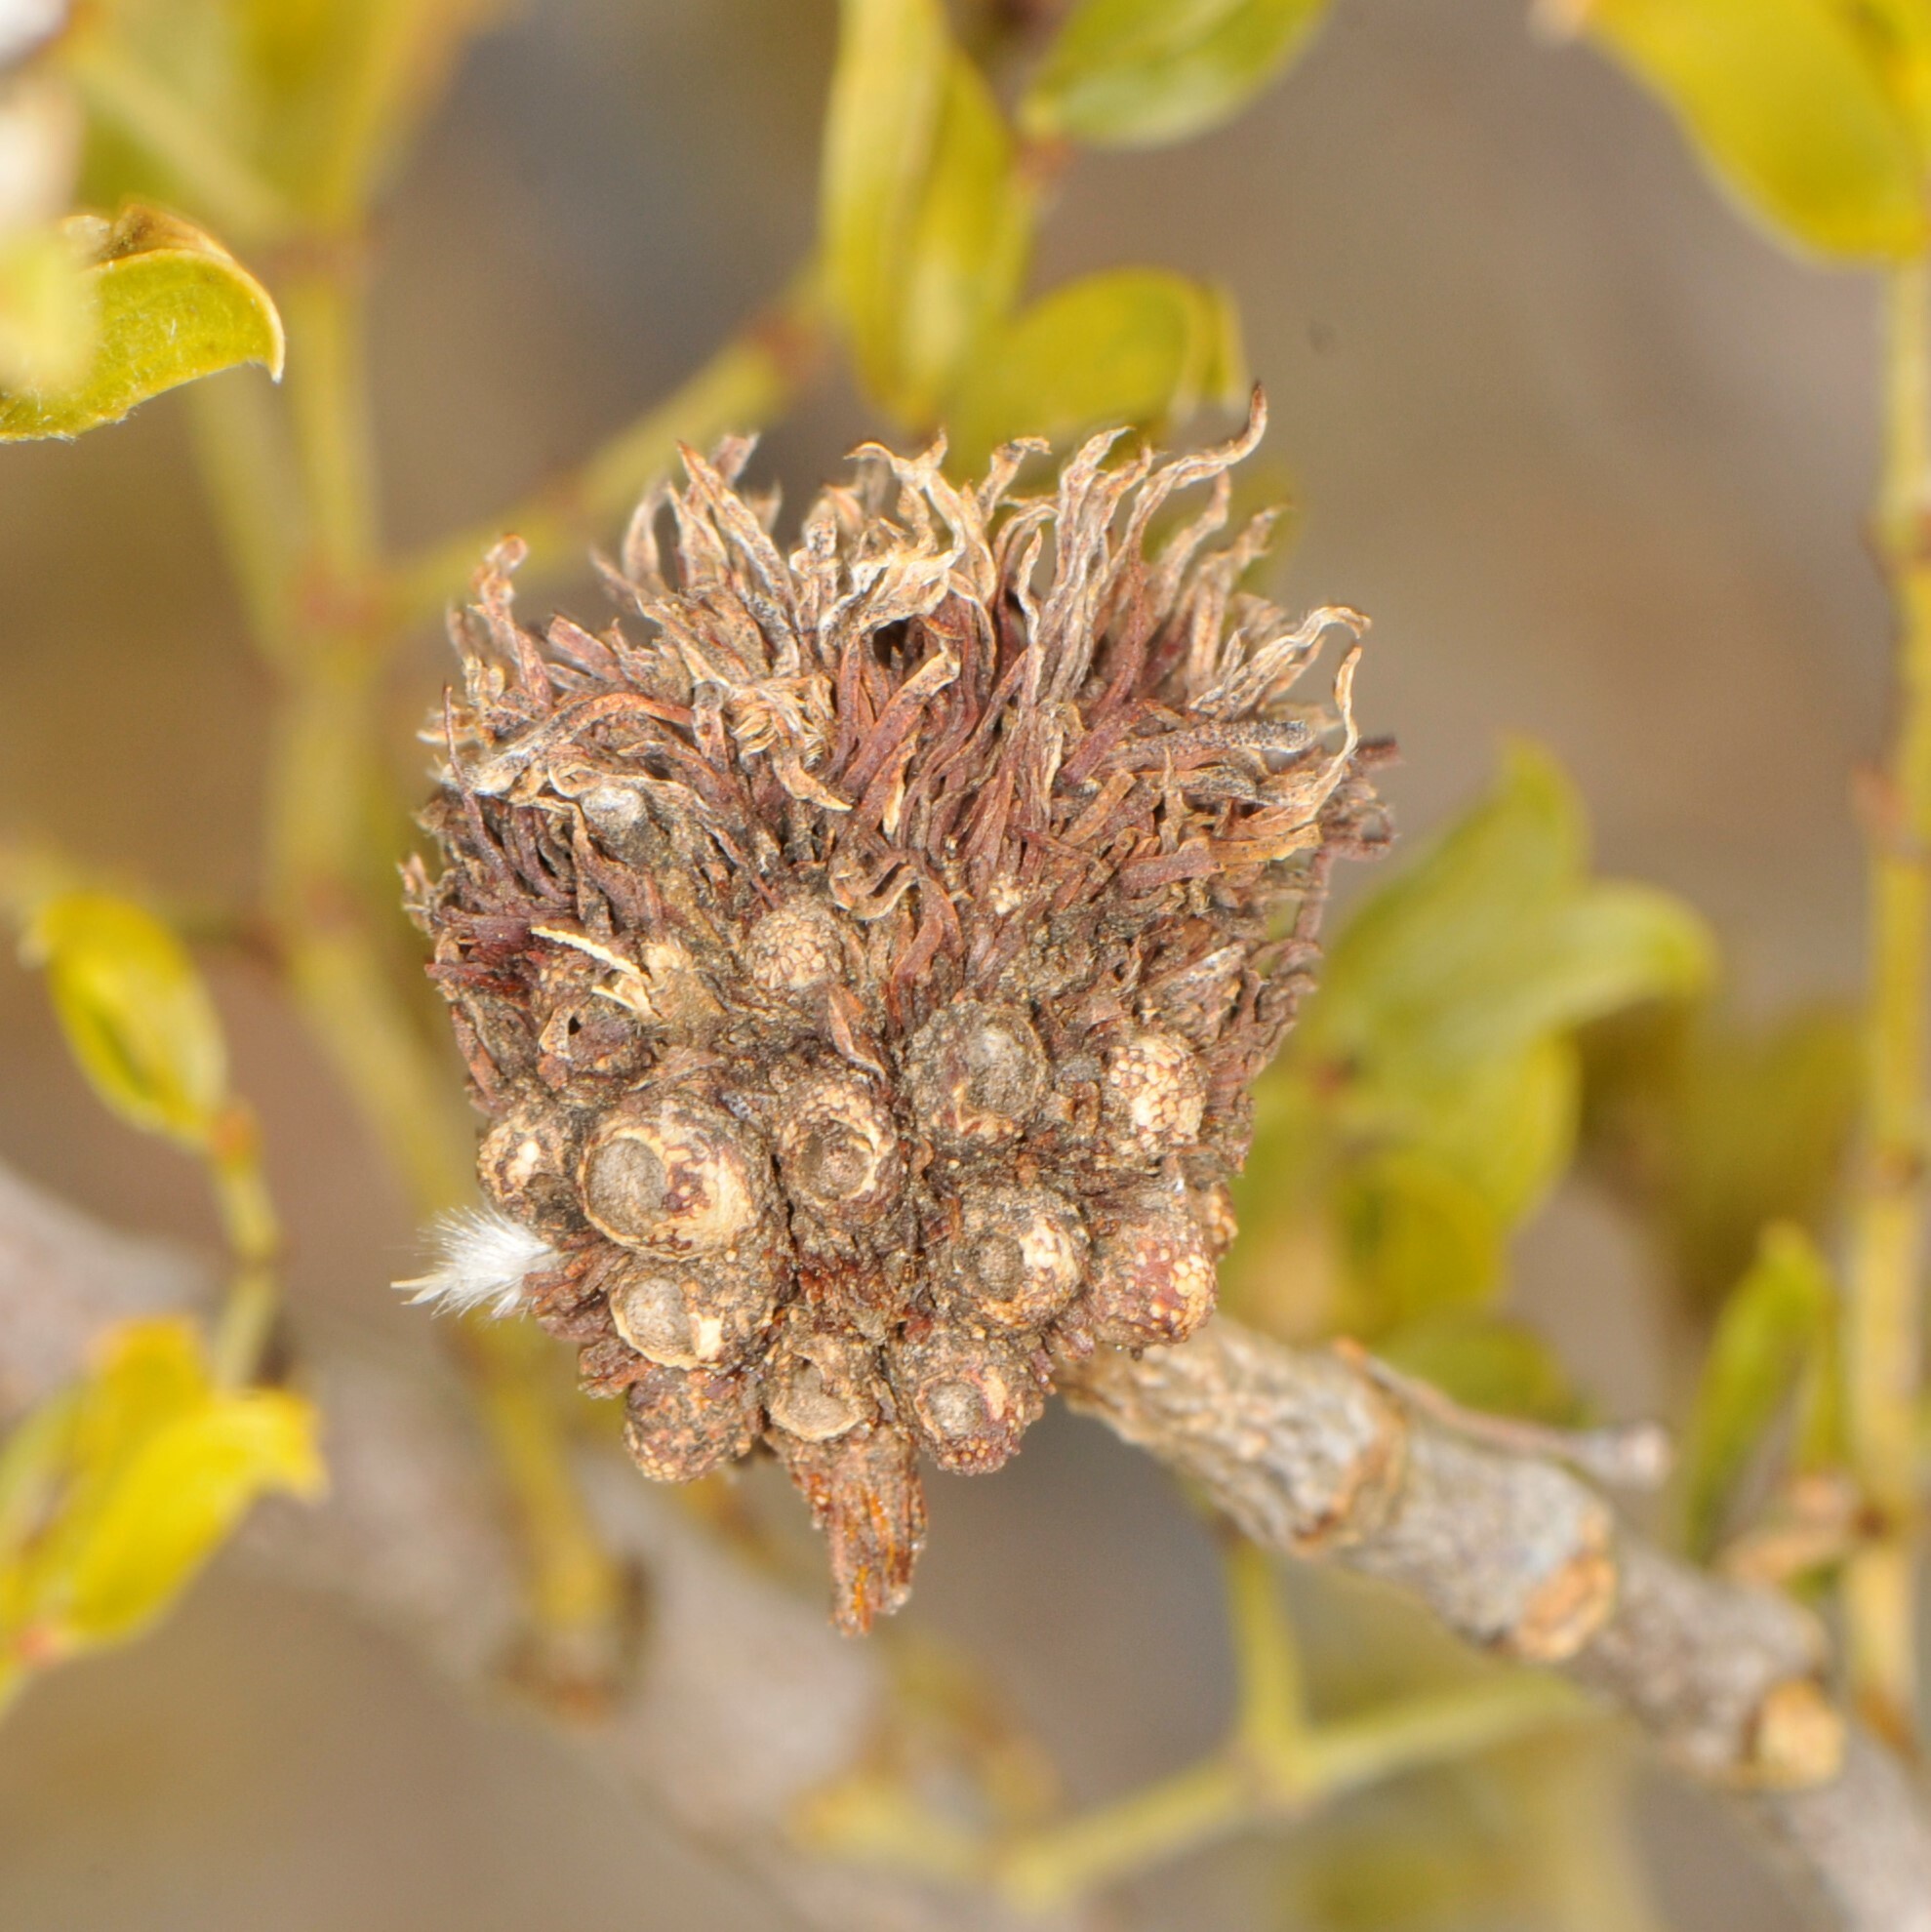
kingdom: Animalia
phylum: Arthropoda
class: Insecta
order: Diptera
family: Cecidomyiidae
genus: Asphondylia
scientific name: Asphondylia auripila
